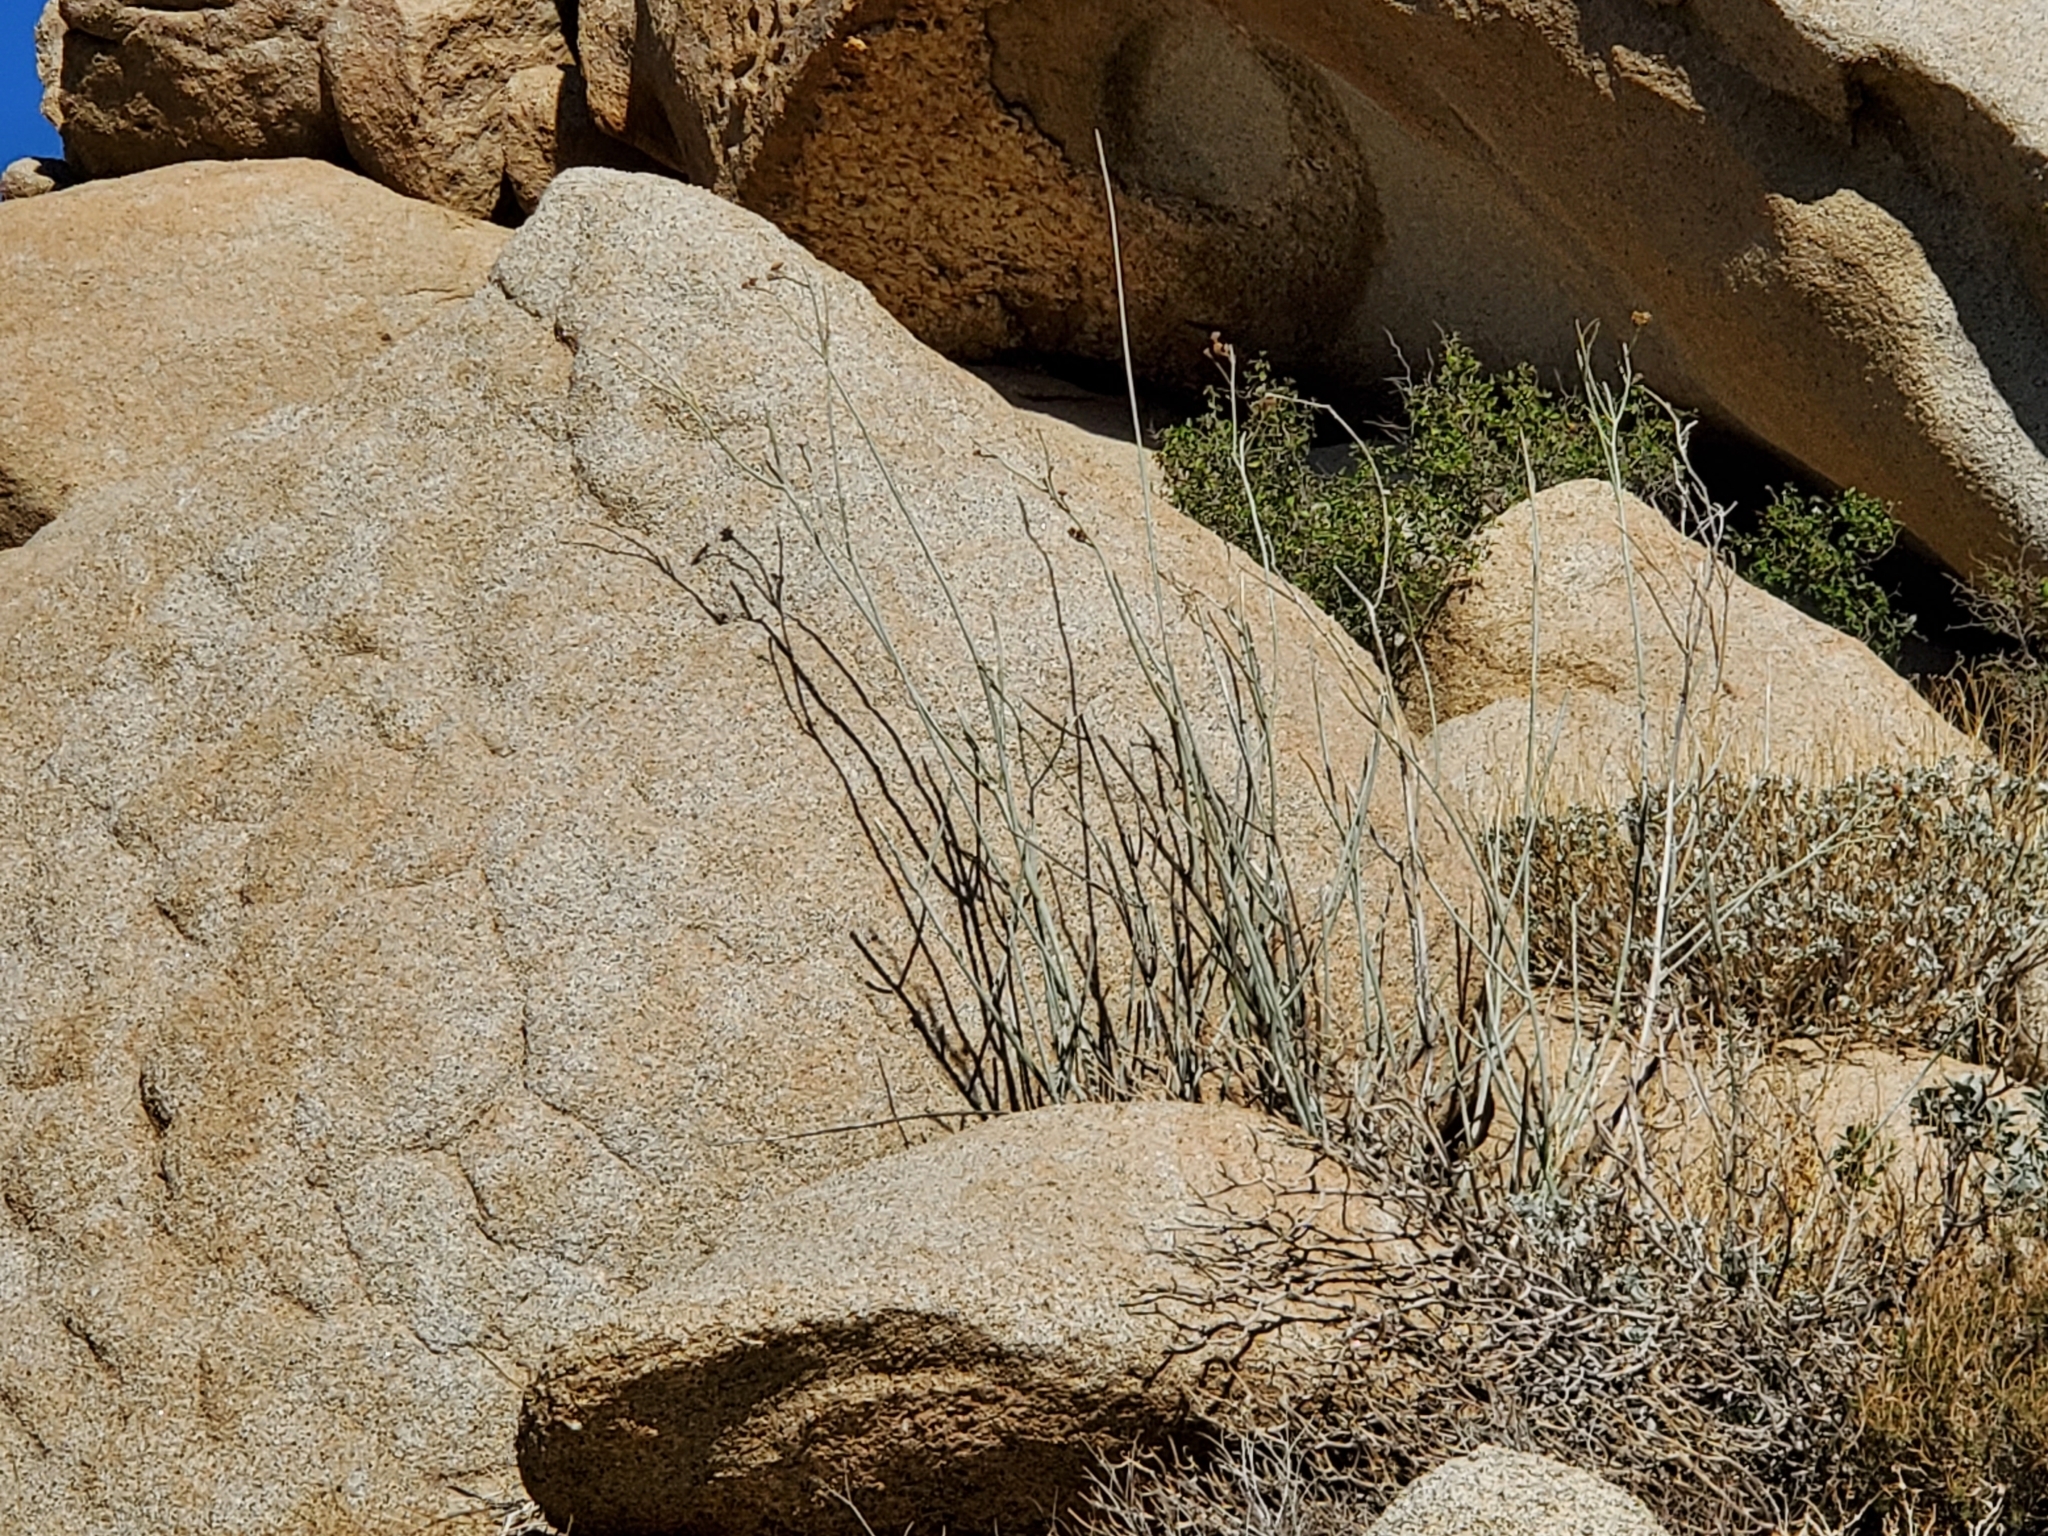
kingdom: Plantae
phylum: Tracheophyta
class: Magnoliopsida
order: Gentianales
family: Apocynaceae
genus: Asclepias
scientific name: Asclepias albicans
